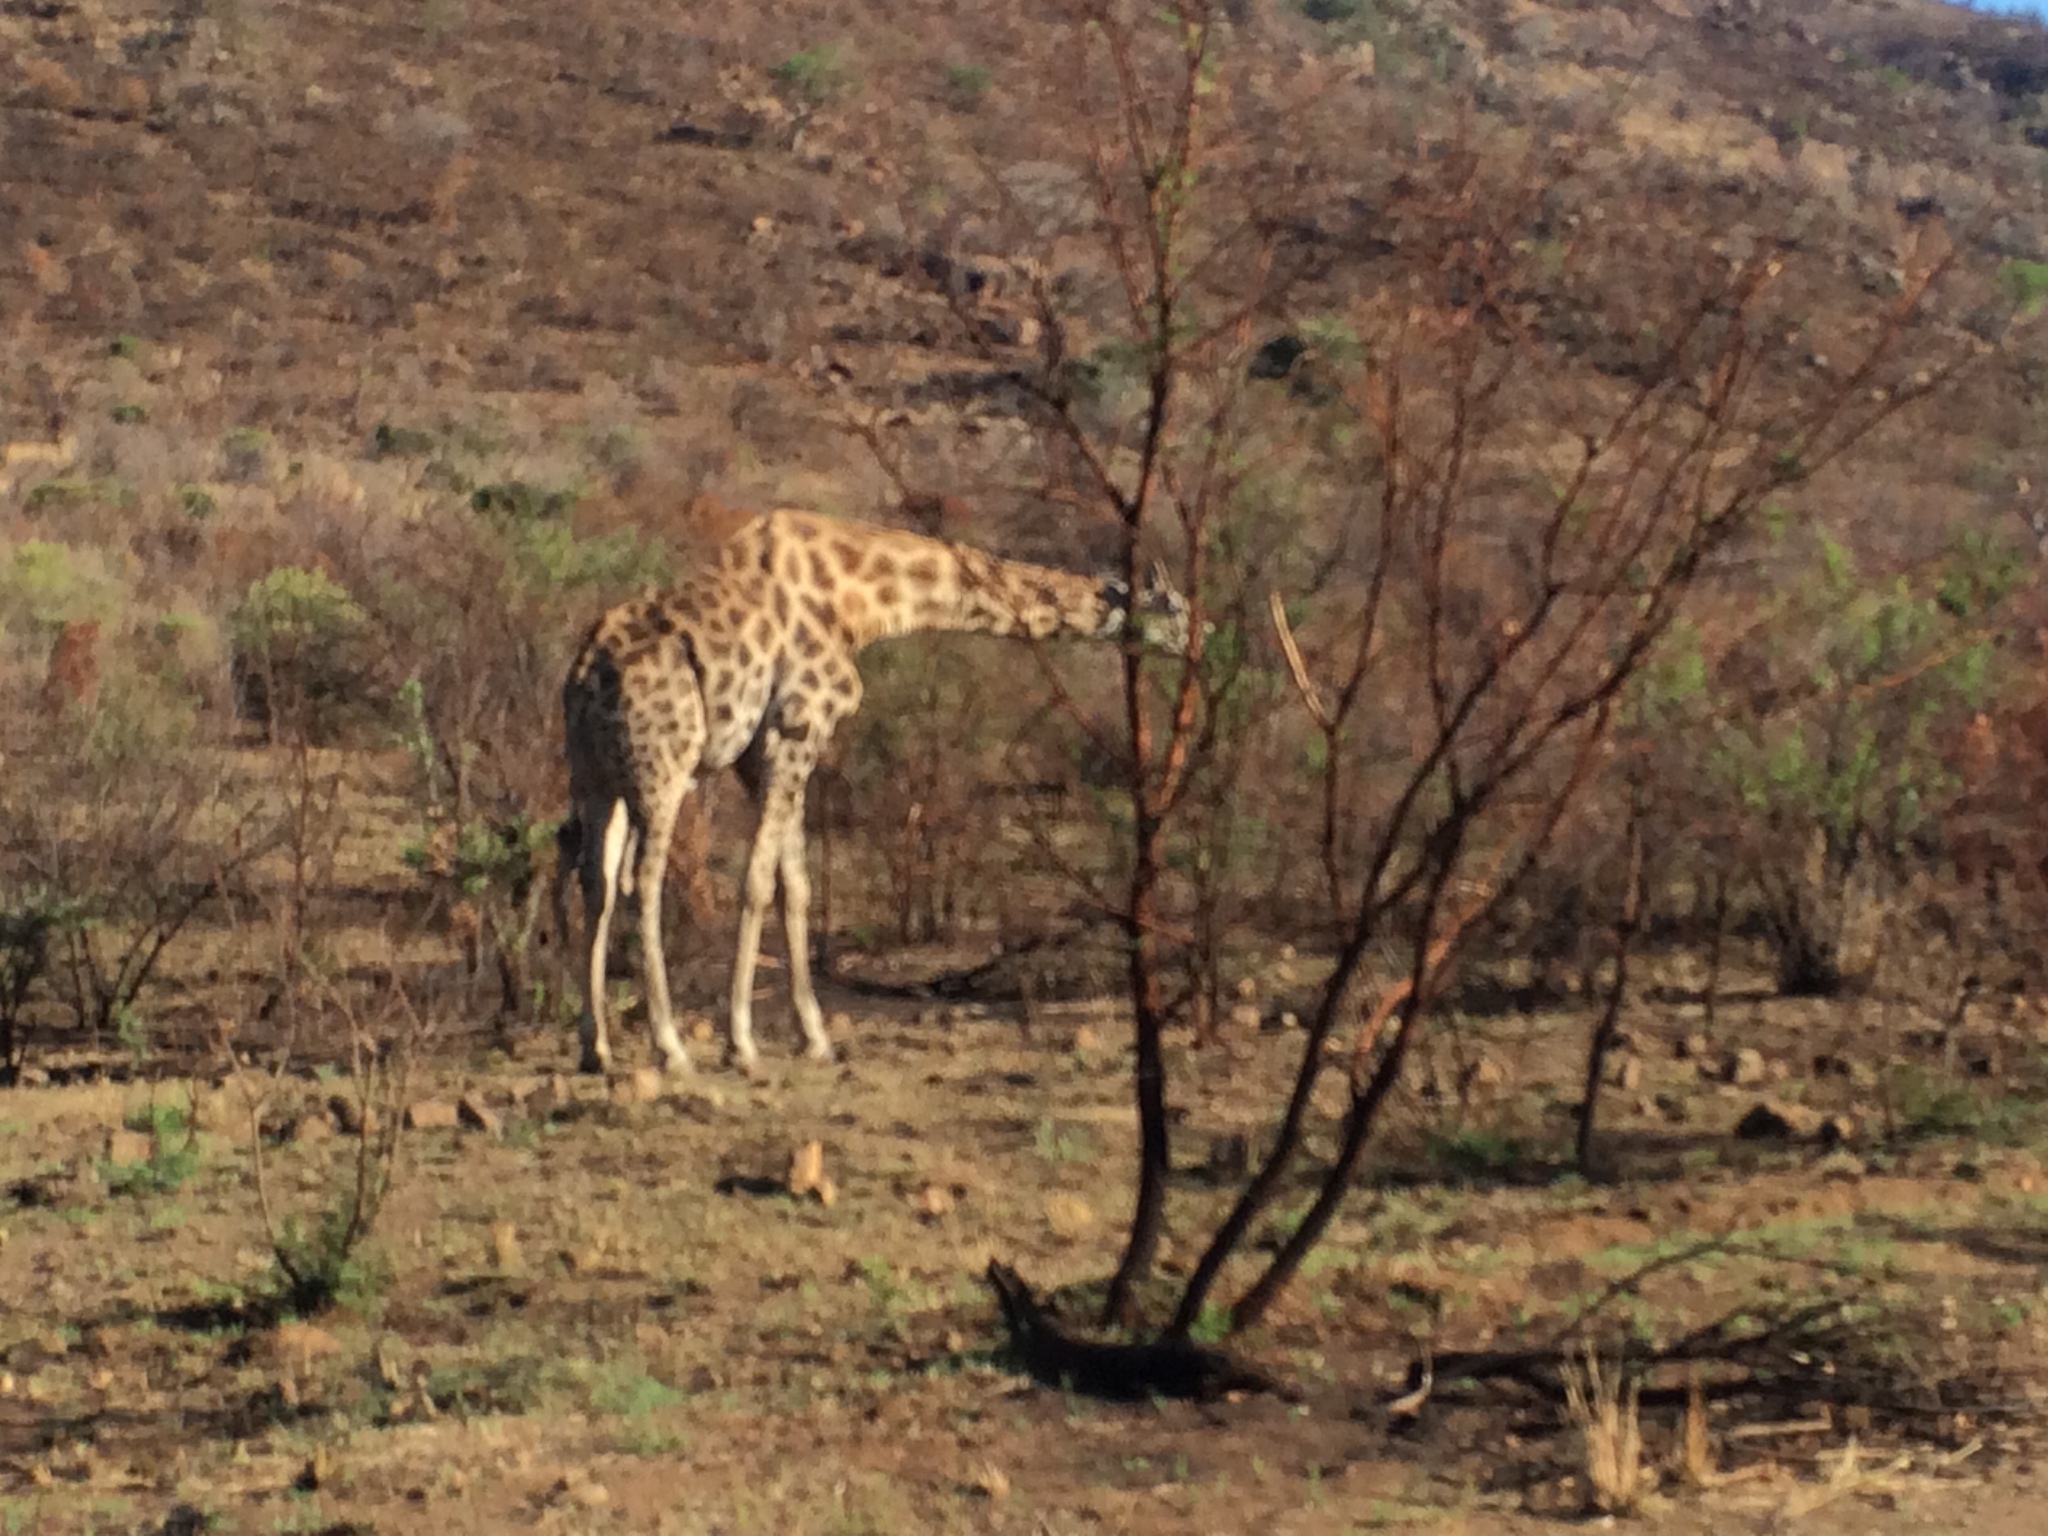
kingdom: Animalia
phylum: Chordata
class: Mammalia
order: Artiodactyla
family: Giraffidae
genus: Giraffa
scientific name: Giraffa giraffa
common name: Southern giraffe
